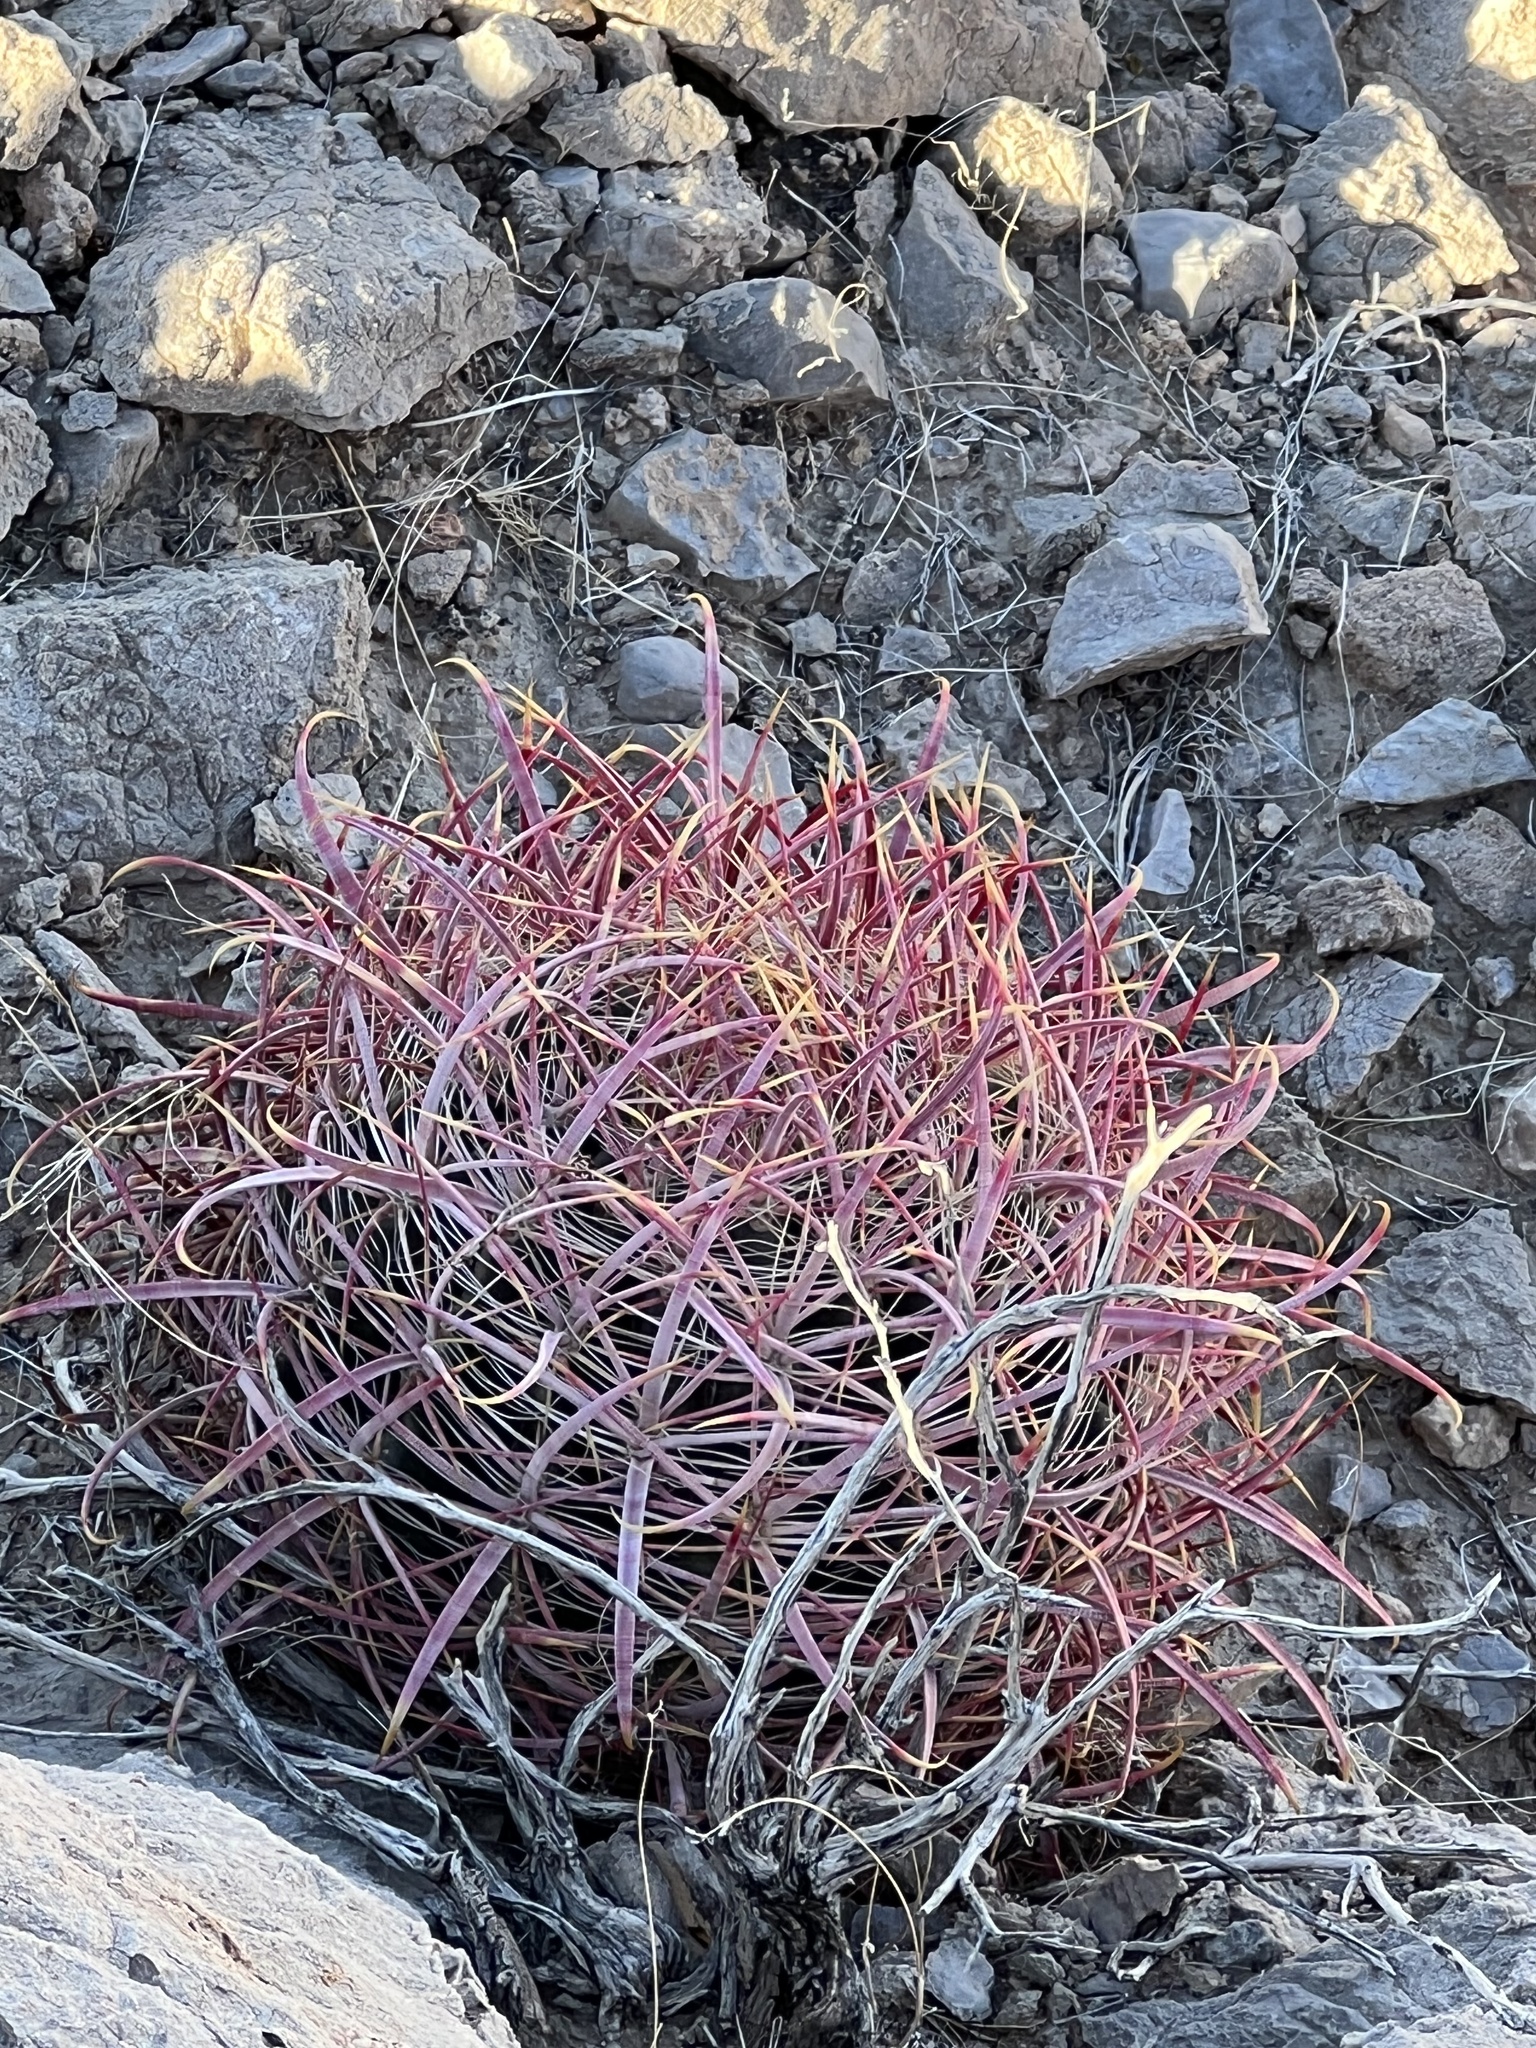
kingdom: Plantae
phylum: Tracheophyta
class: Magnoliopsida
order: Caryophyllales
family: Cactaceae
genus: Ferocactus
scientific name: Ferocactus cylindraceus
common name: California barrel cactus
